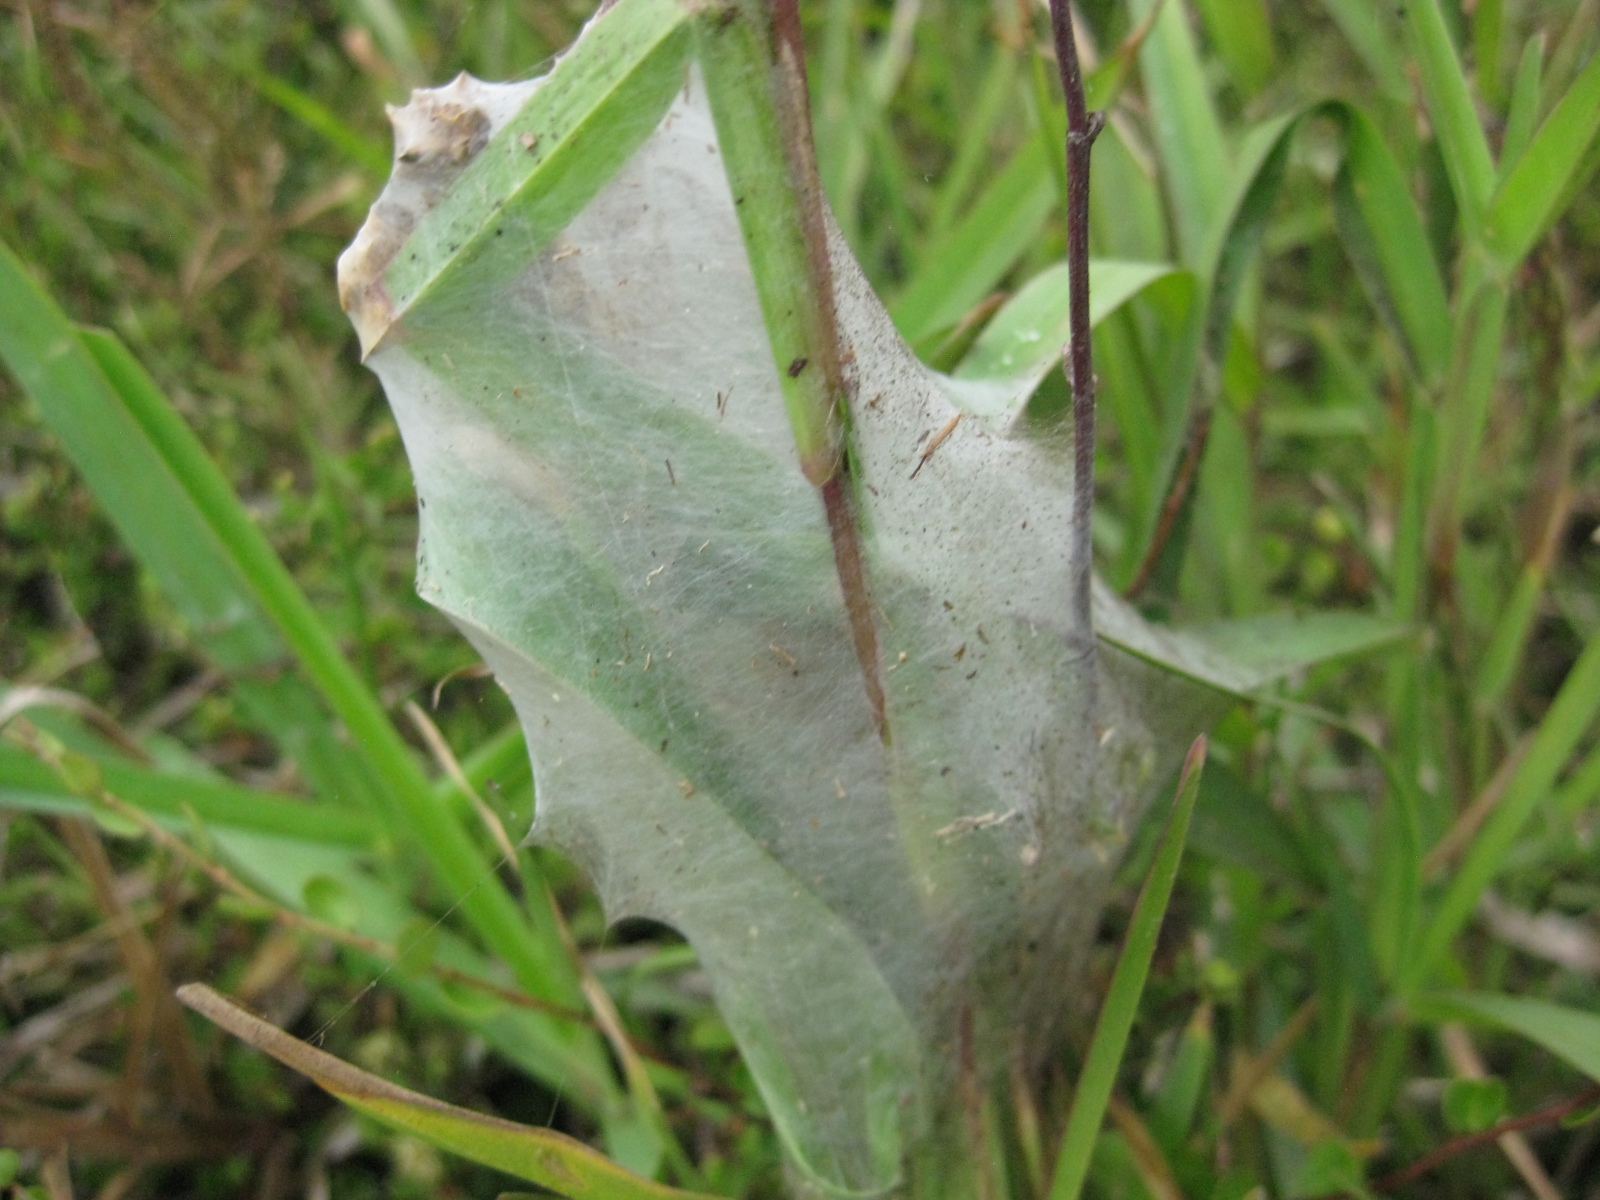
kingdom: Animalia
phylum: Arthropoda
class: Arachnida
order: Araneae
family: Pisauridae
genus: Dolomedes
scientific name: Dolomedes minor
